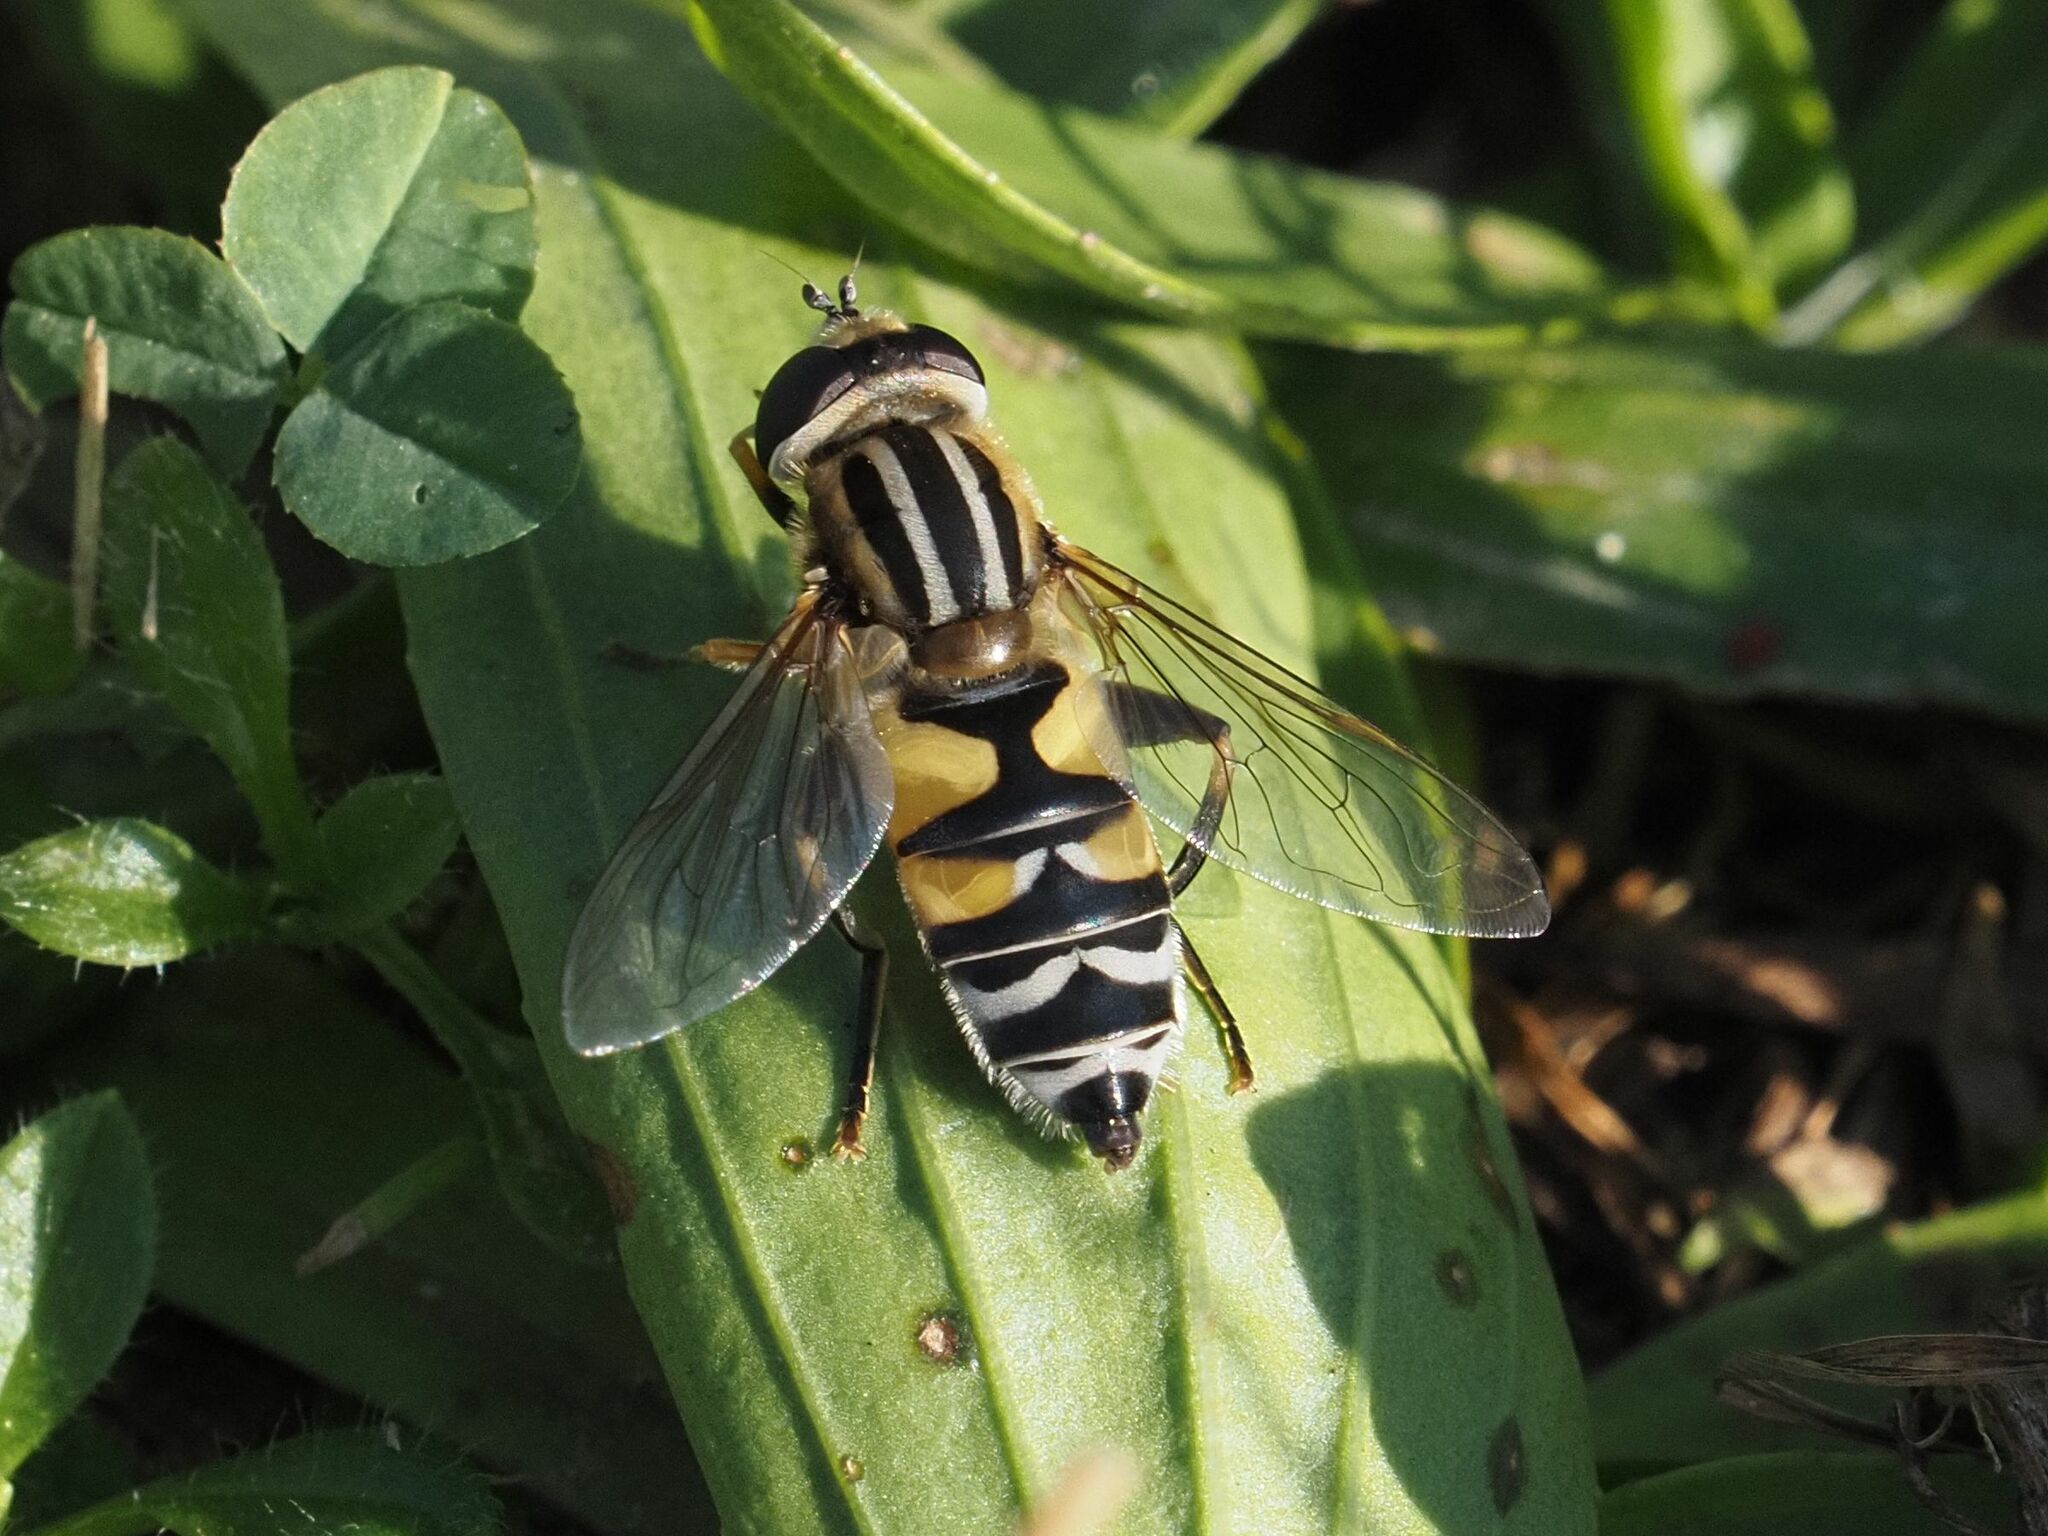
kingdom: Animalia
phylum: Arthropoda
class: Insecta
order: Diptera
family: Syrphidae
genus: Helophilus
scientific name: Helophilus trivittatus
